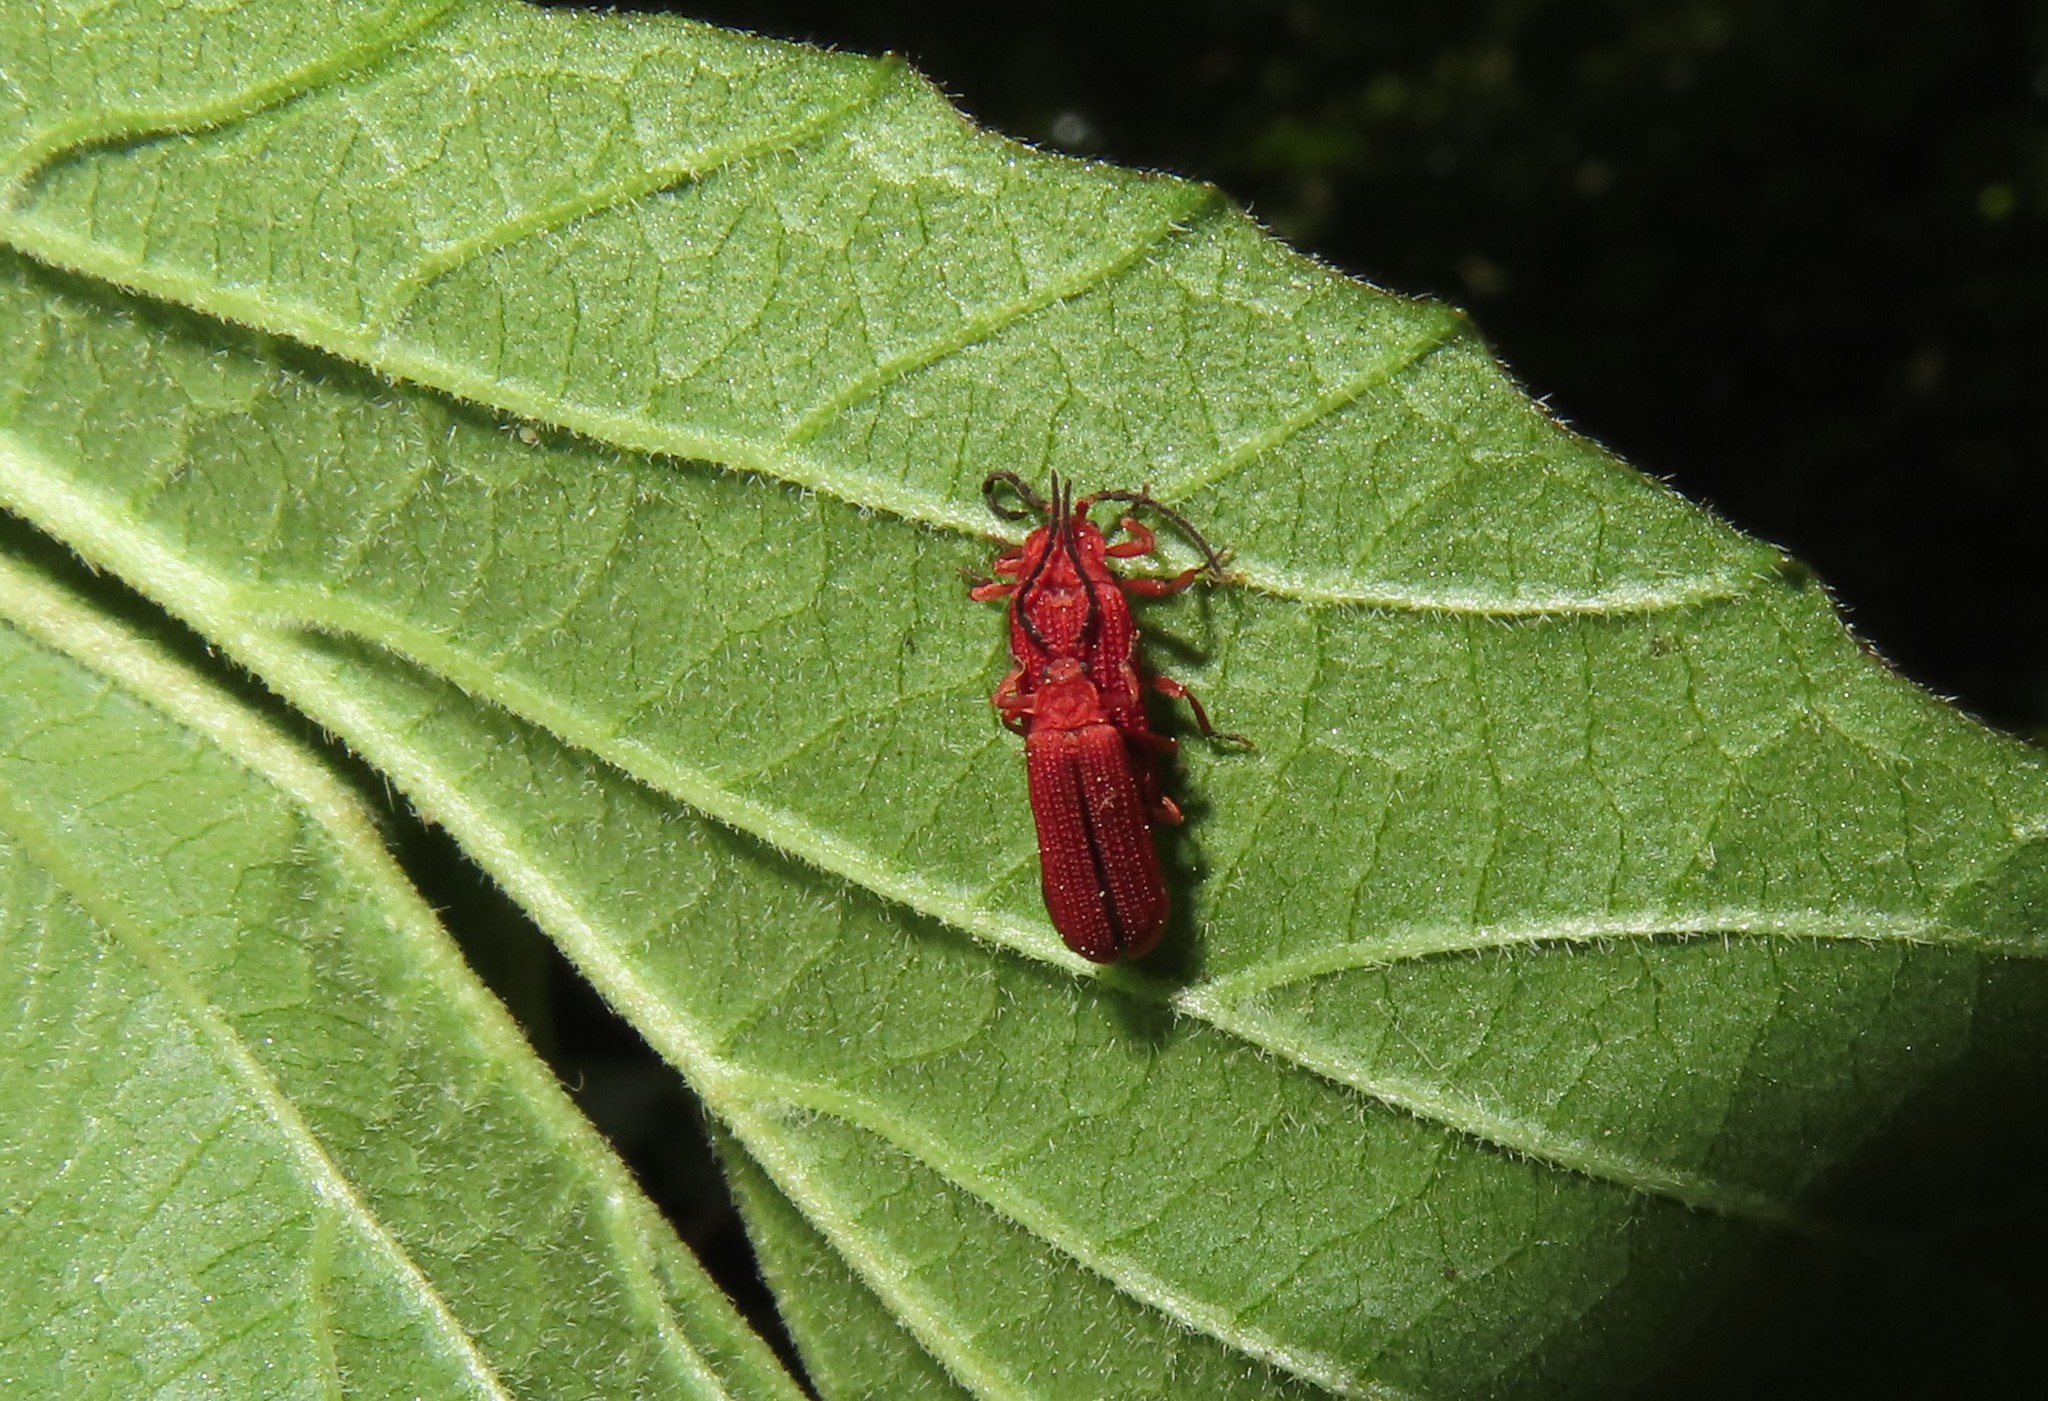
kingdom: Animalia
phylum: Arthropoda
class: Insecta
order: Coleoptera
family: Lycidae
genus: Punicealis
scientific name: Punicealis
